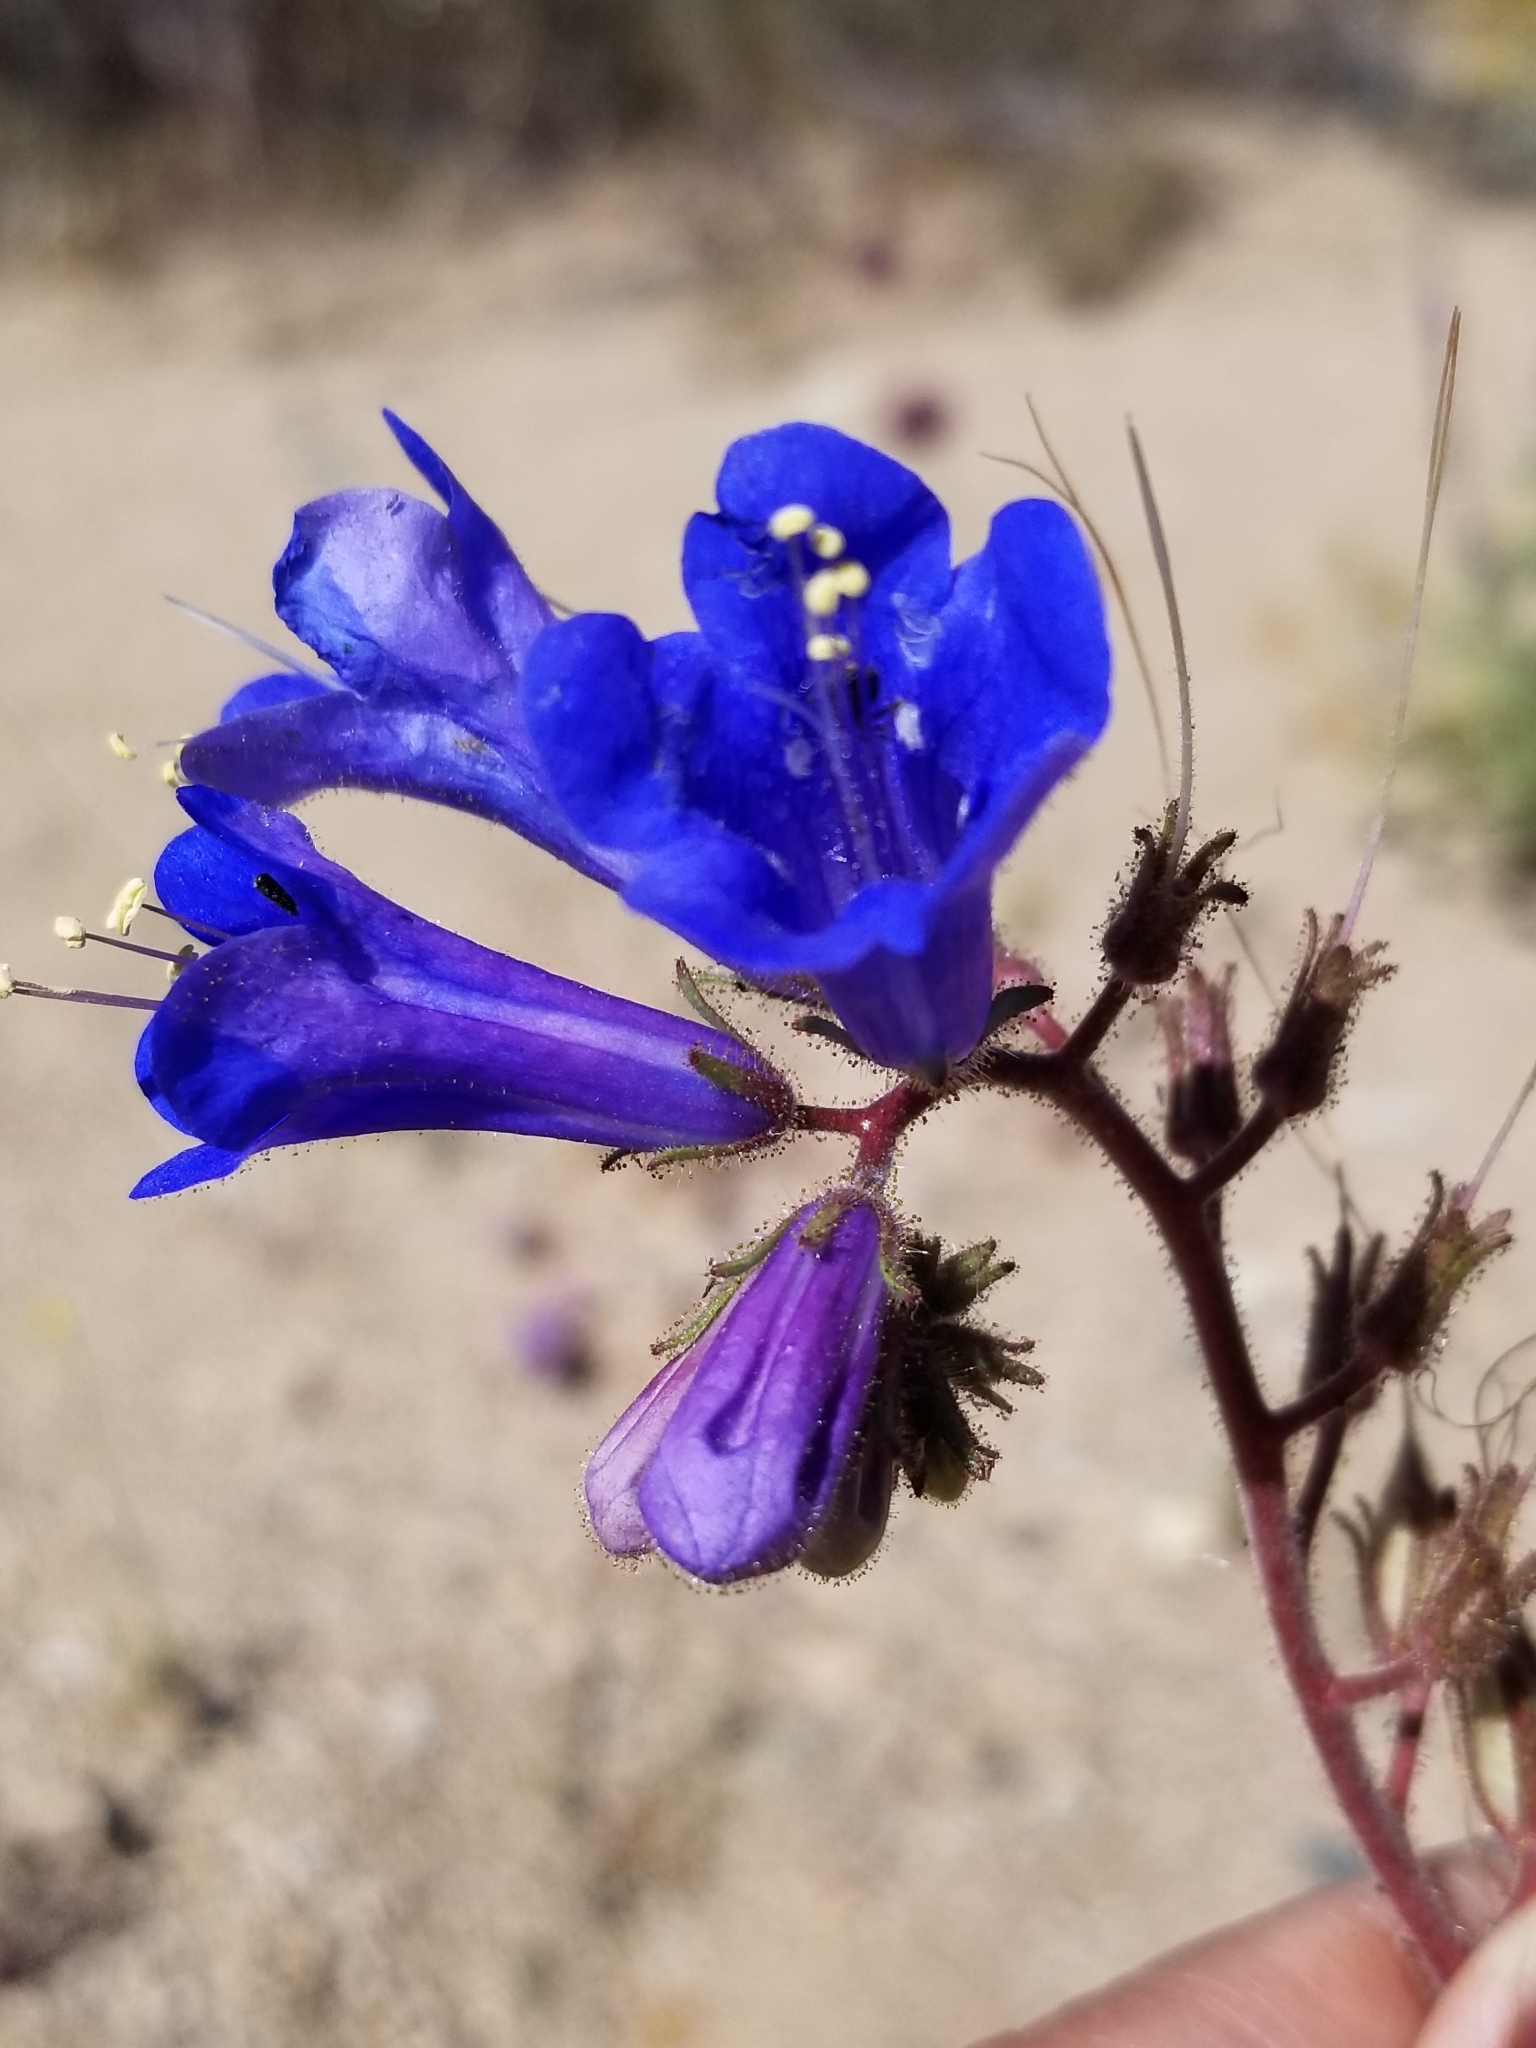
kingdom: Plantae
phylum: Tracheophyta
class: Magnoliopsida
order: Boraginales
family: Hydrophyllaceae
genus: Phacelia
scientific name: Phacelia campanularia
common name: California bluebell
